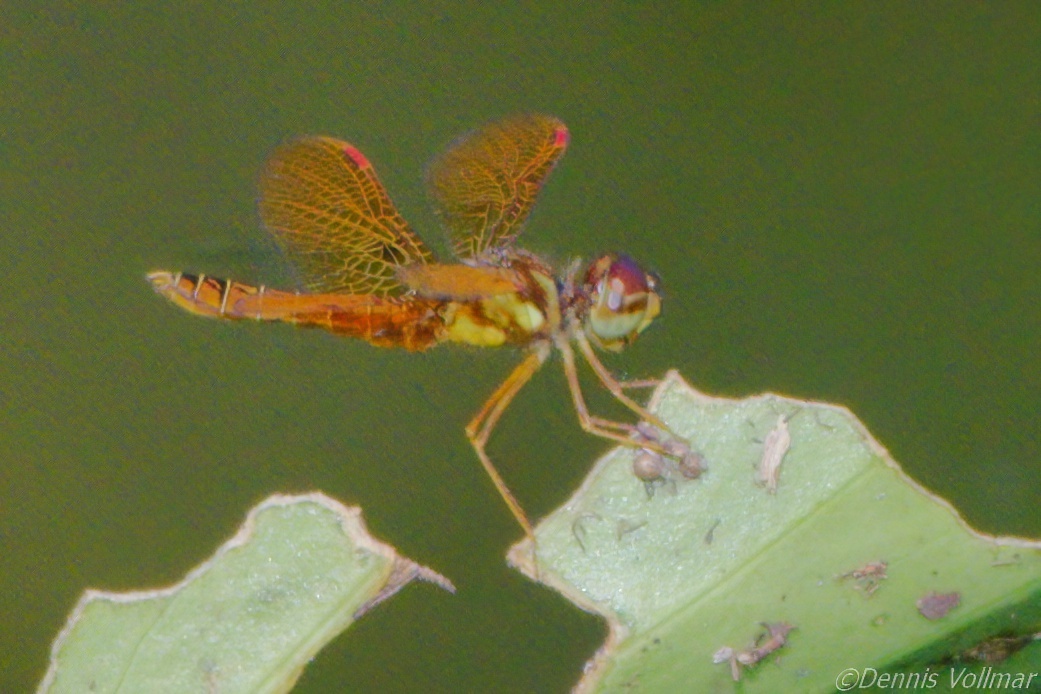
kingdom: Animalia
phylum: Arthropoda
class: Insecta
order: Odonata
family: Libellulidae
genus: Perithemis
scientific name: Perithemis tenera
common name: Eastern amberwing
